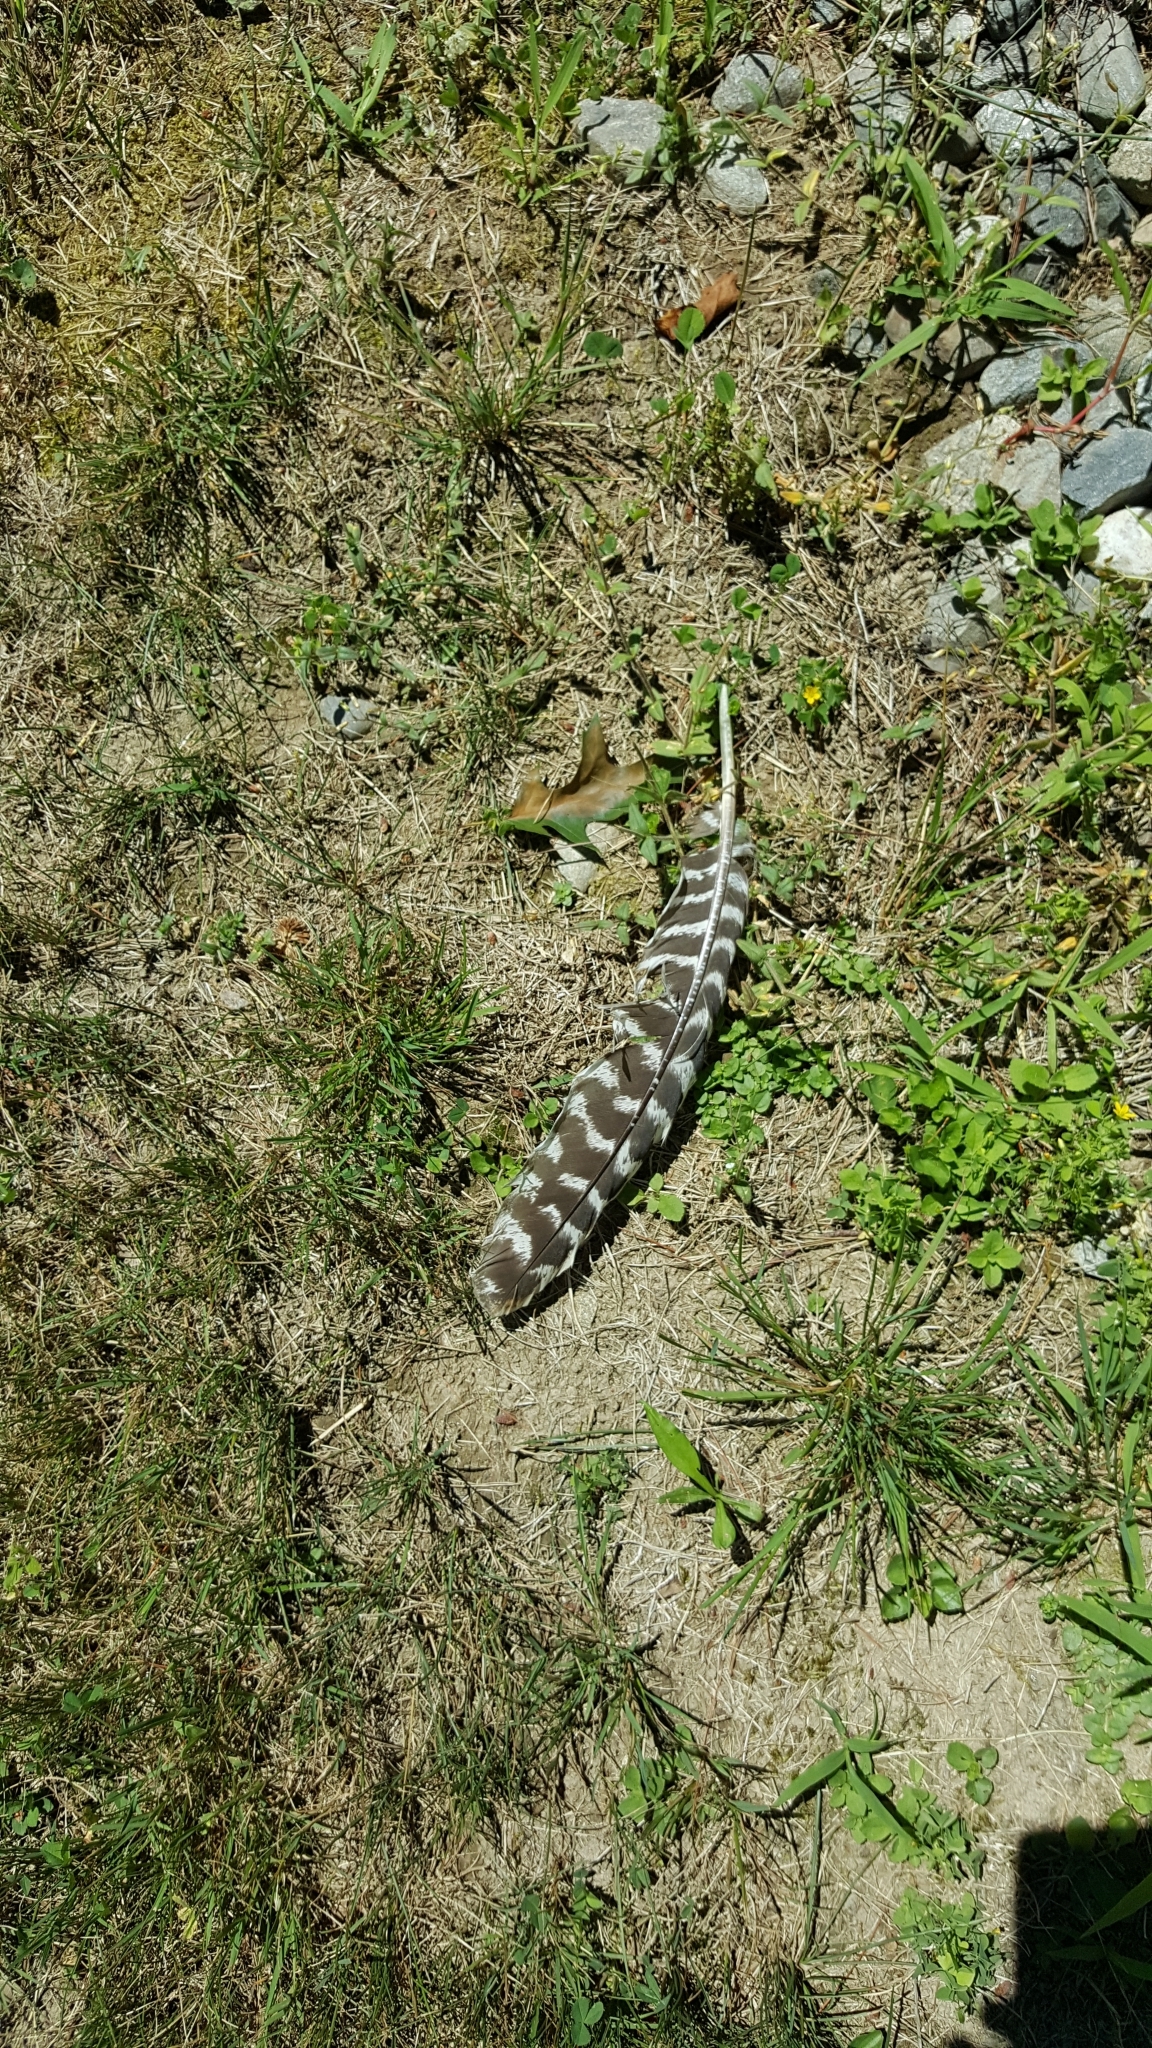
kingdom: Animalia
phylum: Chordata
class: Aves
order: Galliformes
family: Phasianidae
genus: Meleagris
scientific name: Meleagris gallopavo
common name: Wild turkey
